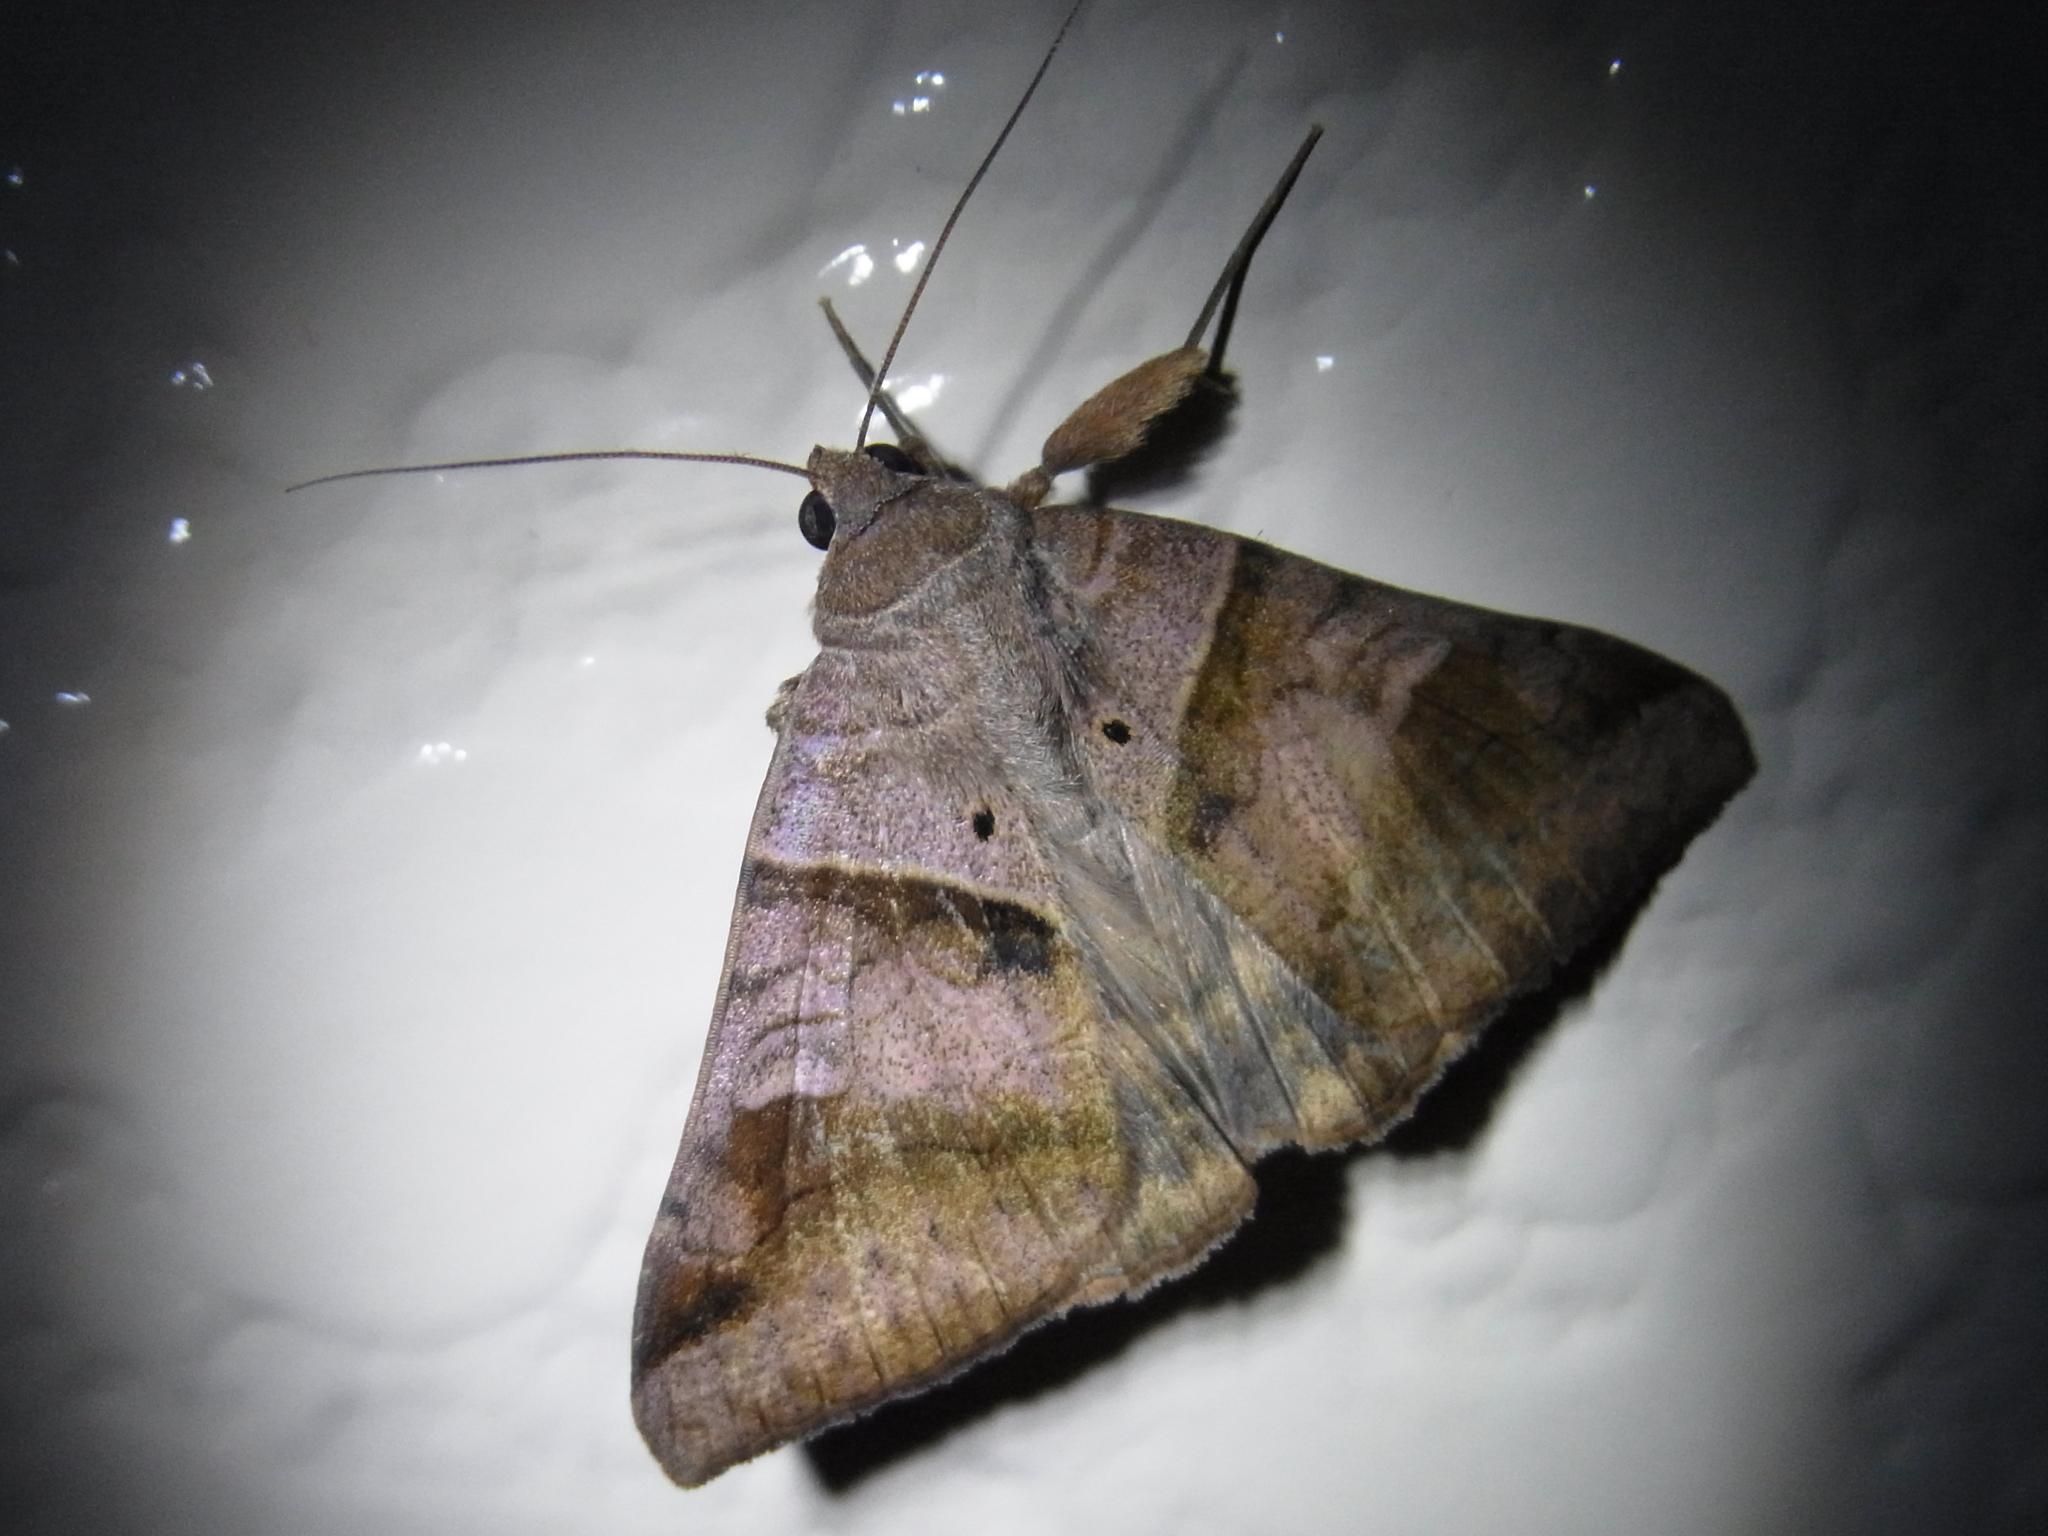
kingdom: Animalia
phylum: Arthropoda
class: Insecta
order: Lepidoptera
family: Erebidae
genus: Mocis
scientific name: Mocis undata
